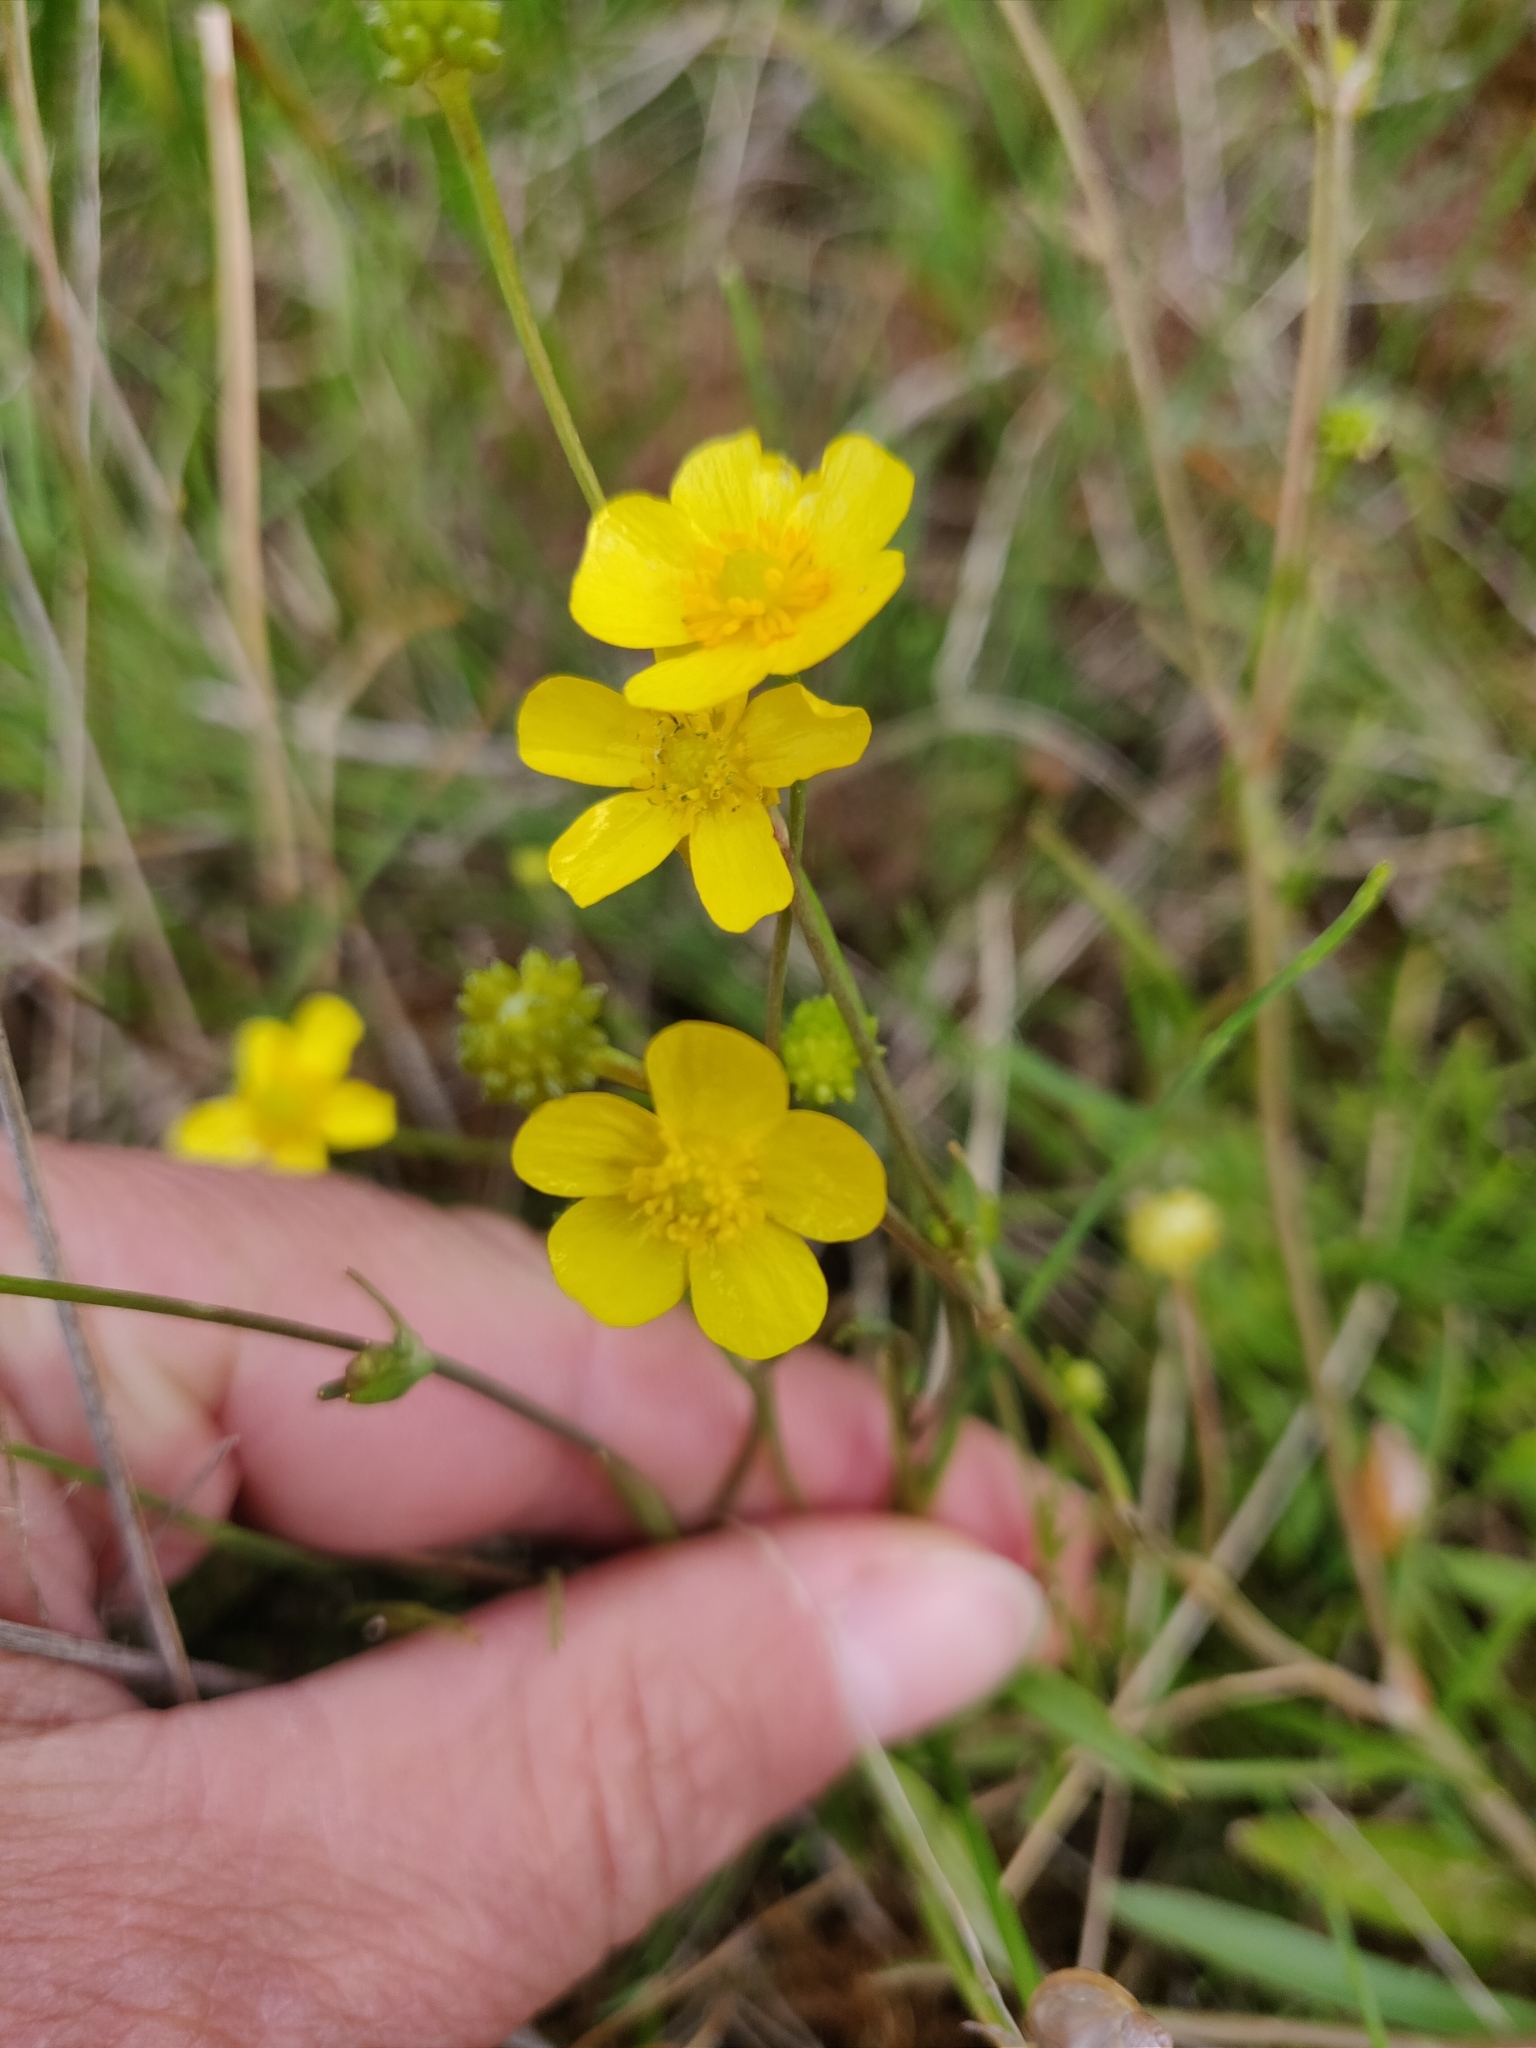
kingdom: Plantae
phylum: Tracheophyta
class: Magnoliopsida
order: Ranunculales
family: Ranunculaceae
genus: Ranunculus
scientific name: Ranunculus flammula
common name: Lesser spearwort
